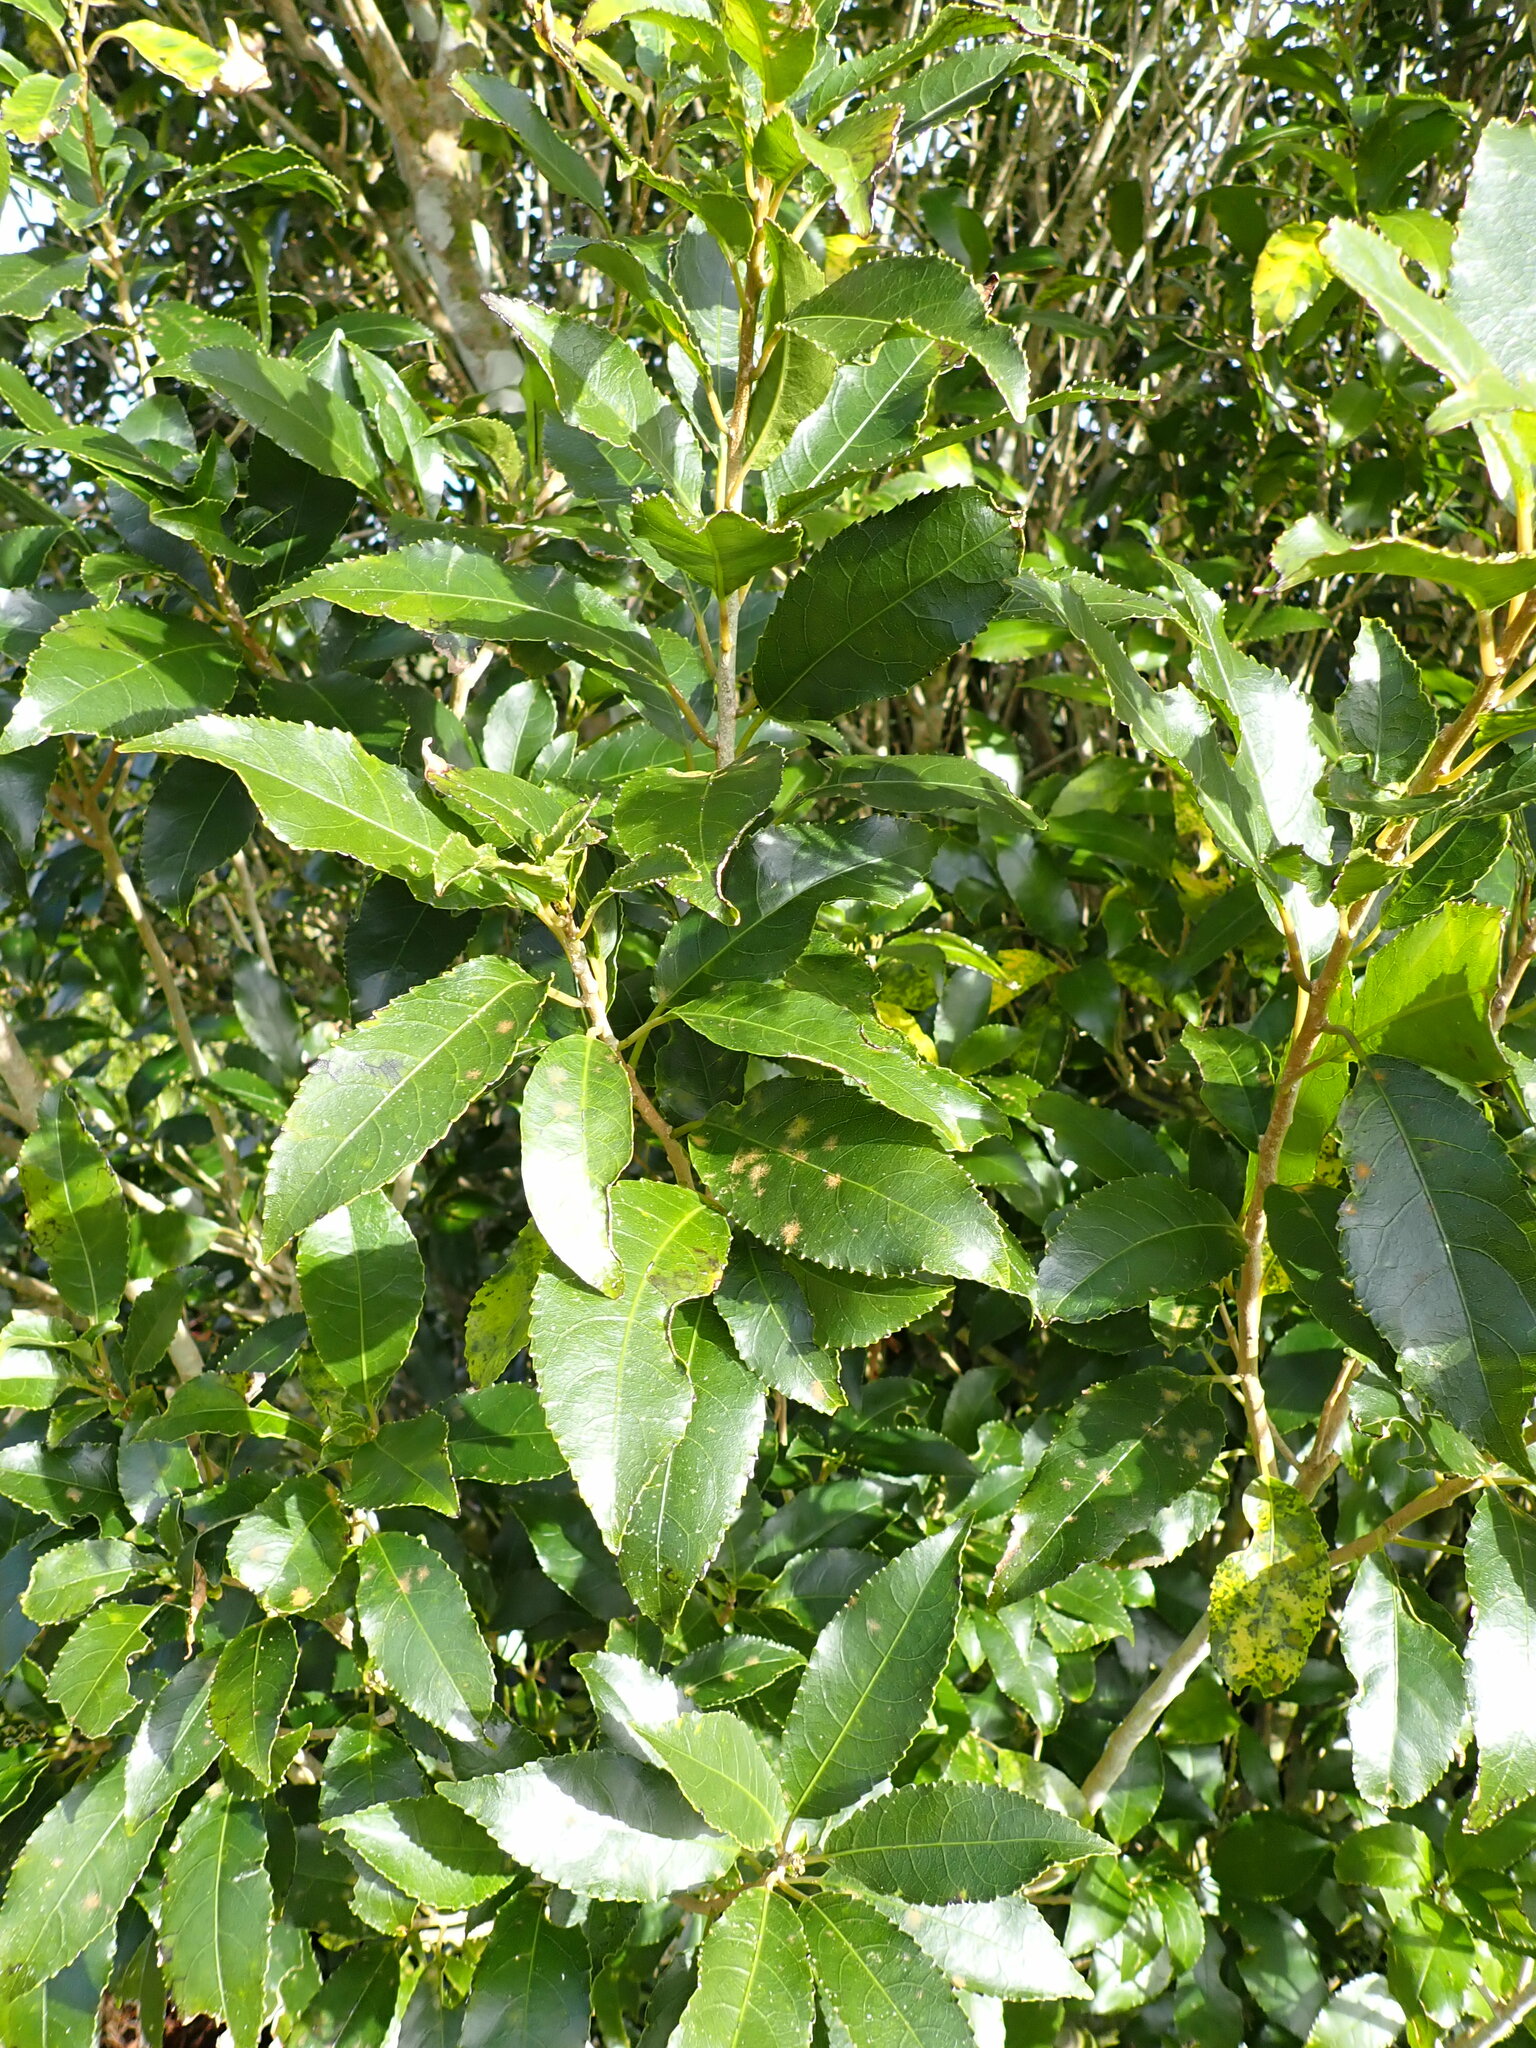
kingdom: Plantae
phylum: Tracheophyta
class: Magnoliopsida
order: Malpighiales
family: Violaceae
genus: Melicytus
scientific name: Melicytus ramiflorus
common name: Mahoe
